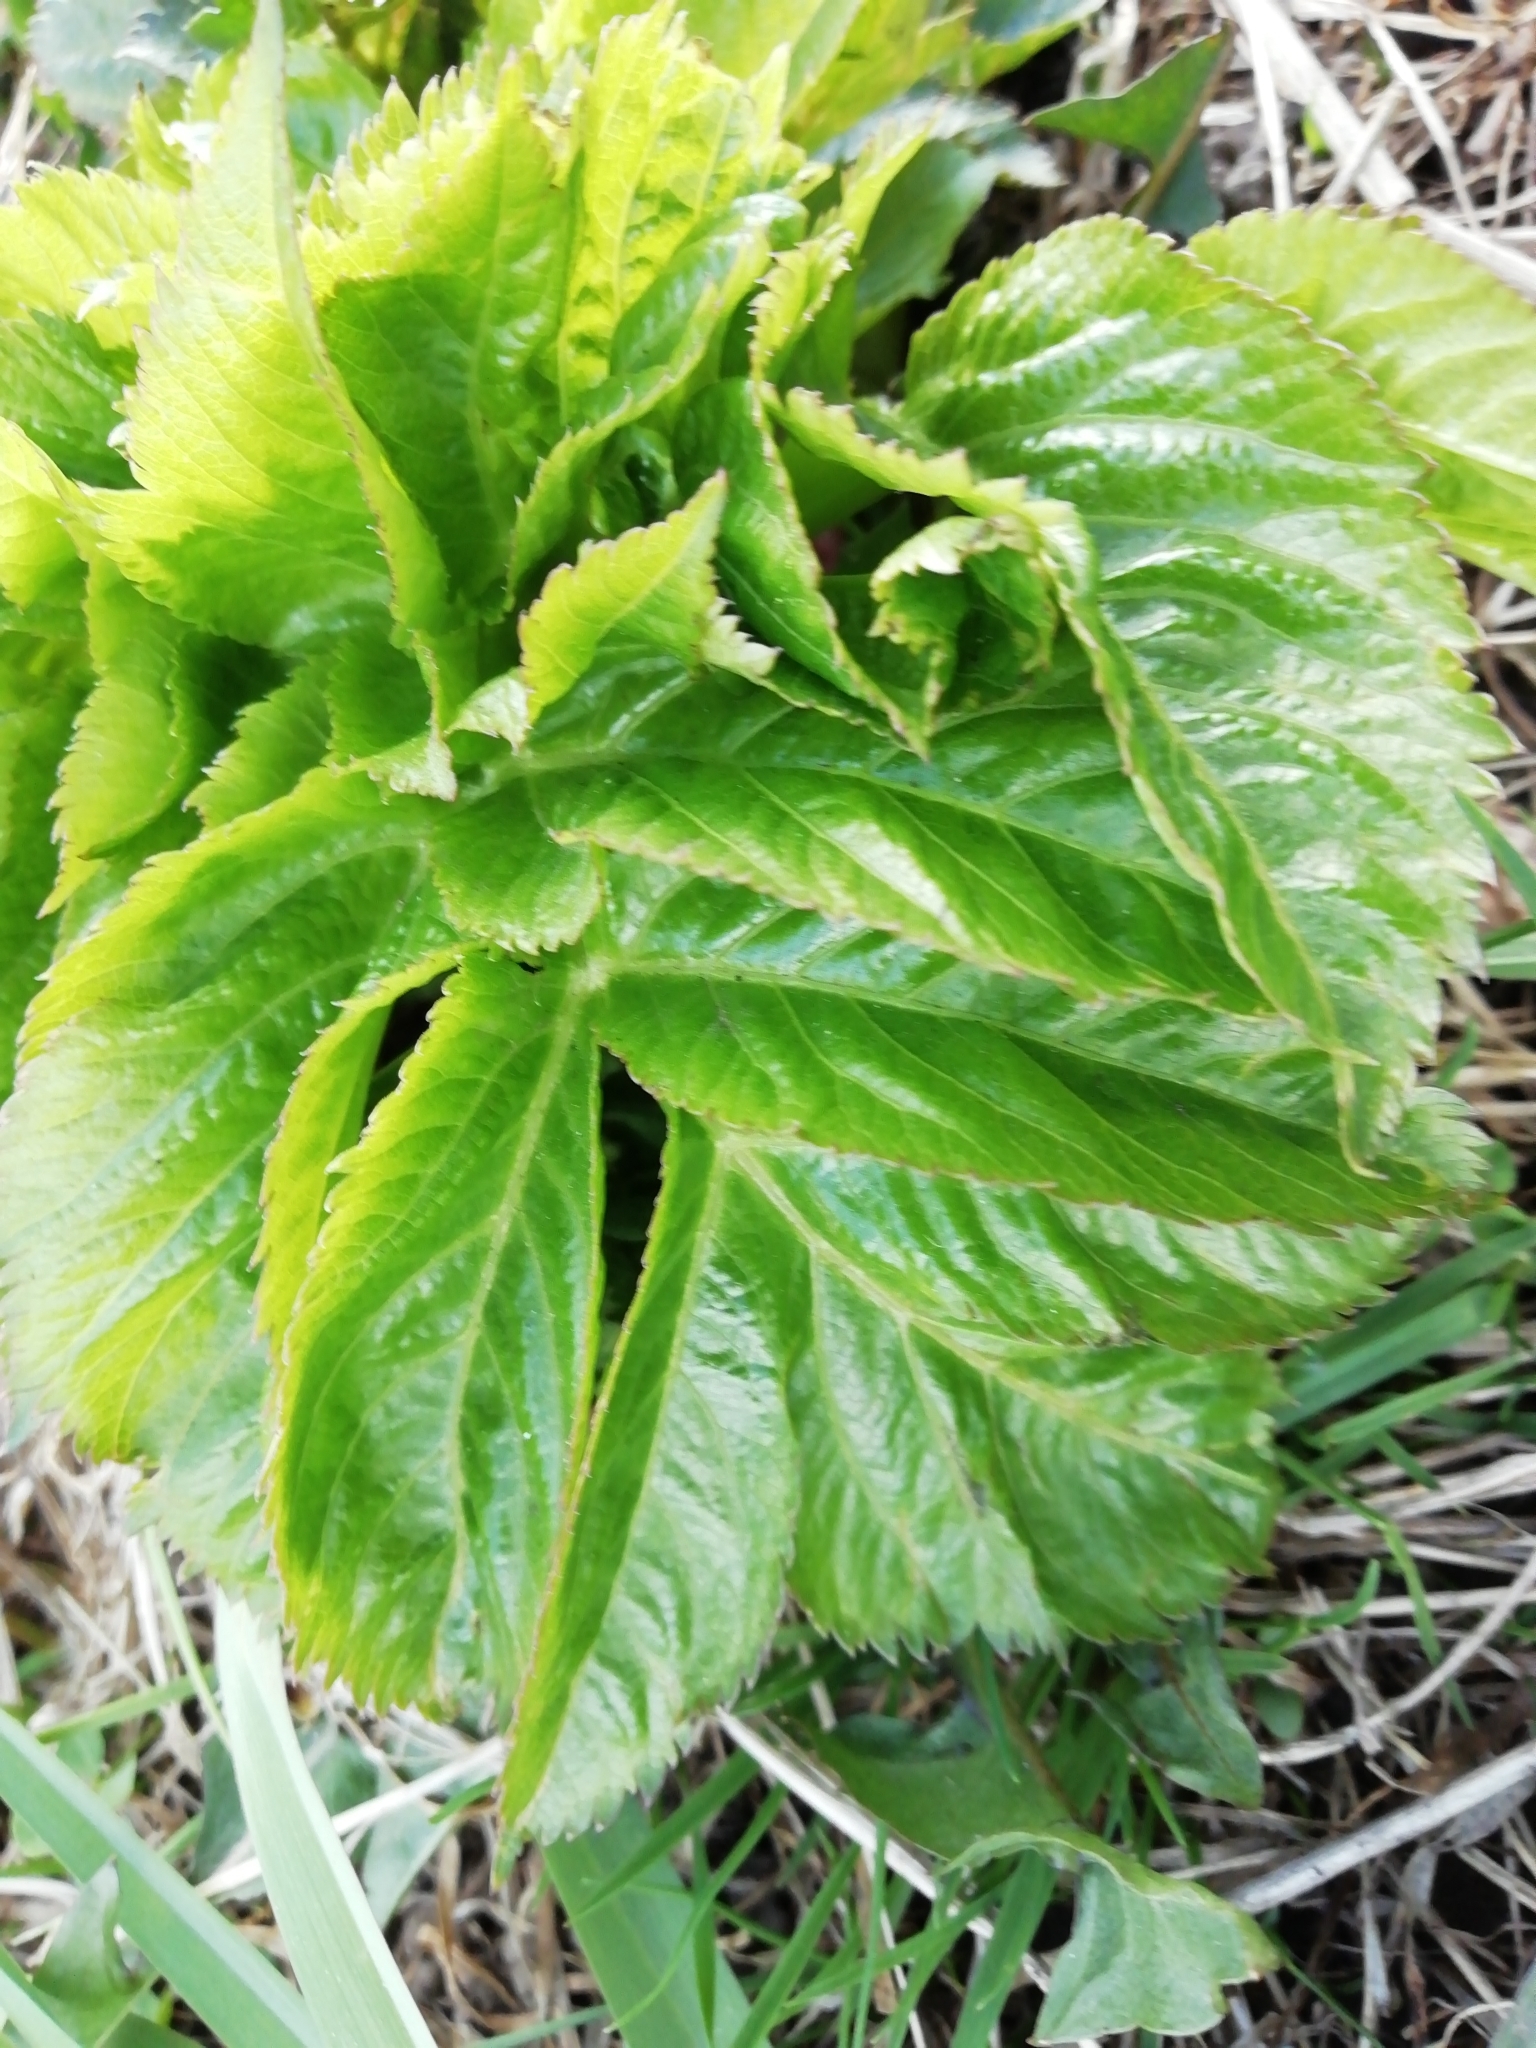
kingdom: Plantae
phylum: Tracheophyta
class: Magnoliopsida
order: Apiales
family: Apiaceae
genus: Angelica
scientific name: Angelica decurrens
